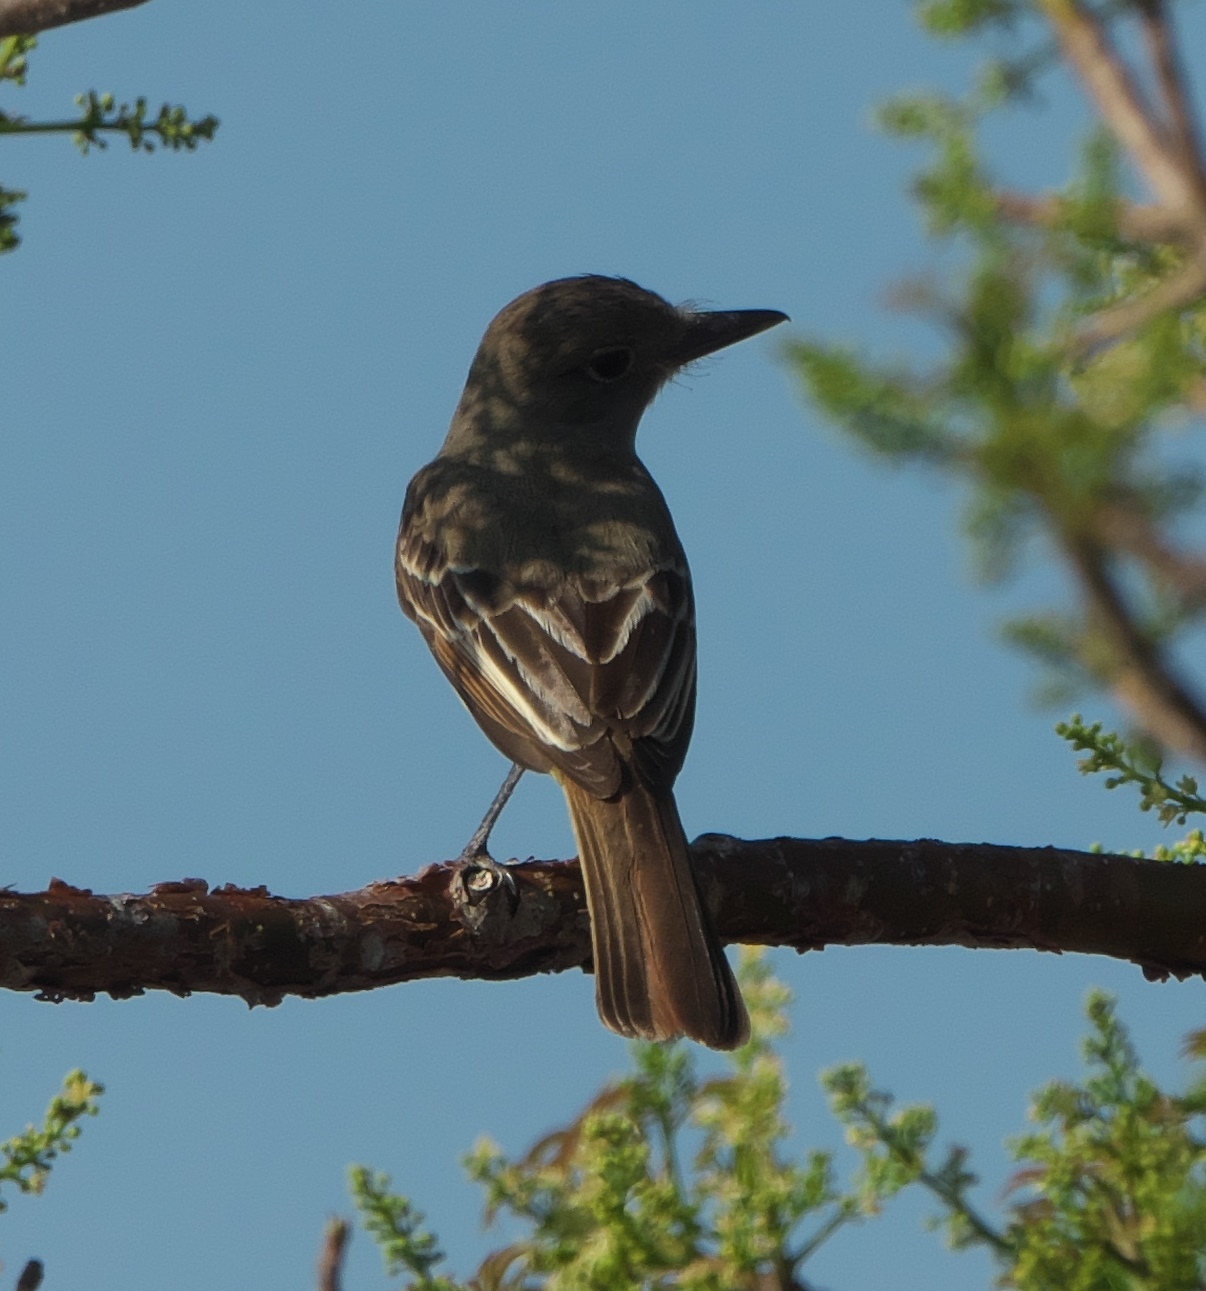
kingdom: Animalia
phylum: Chordata
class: Aves
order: Passeriformes
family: Tyrannidae
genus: Myiarchus
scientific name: Myiarchus crinitus
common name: Great crested flycatcher
